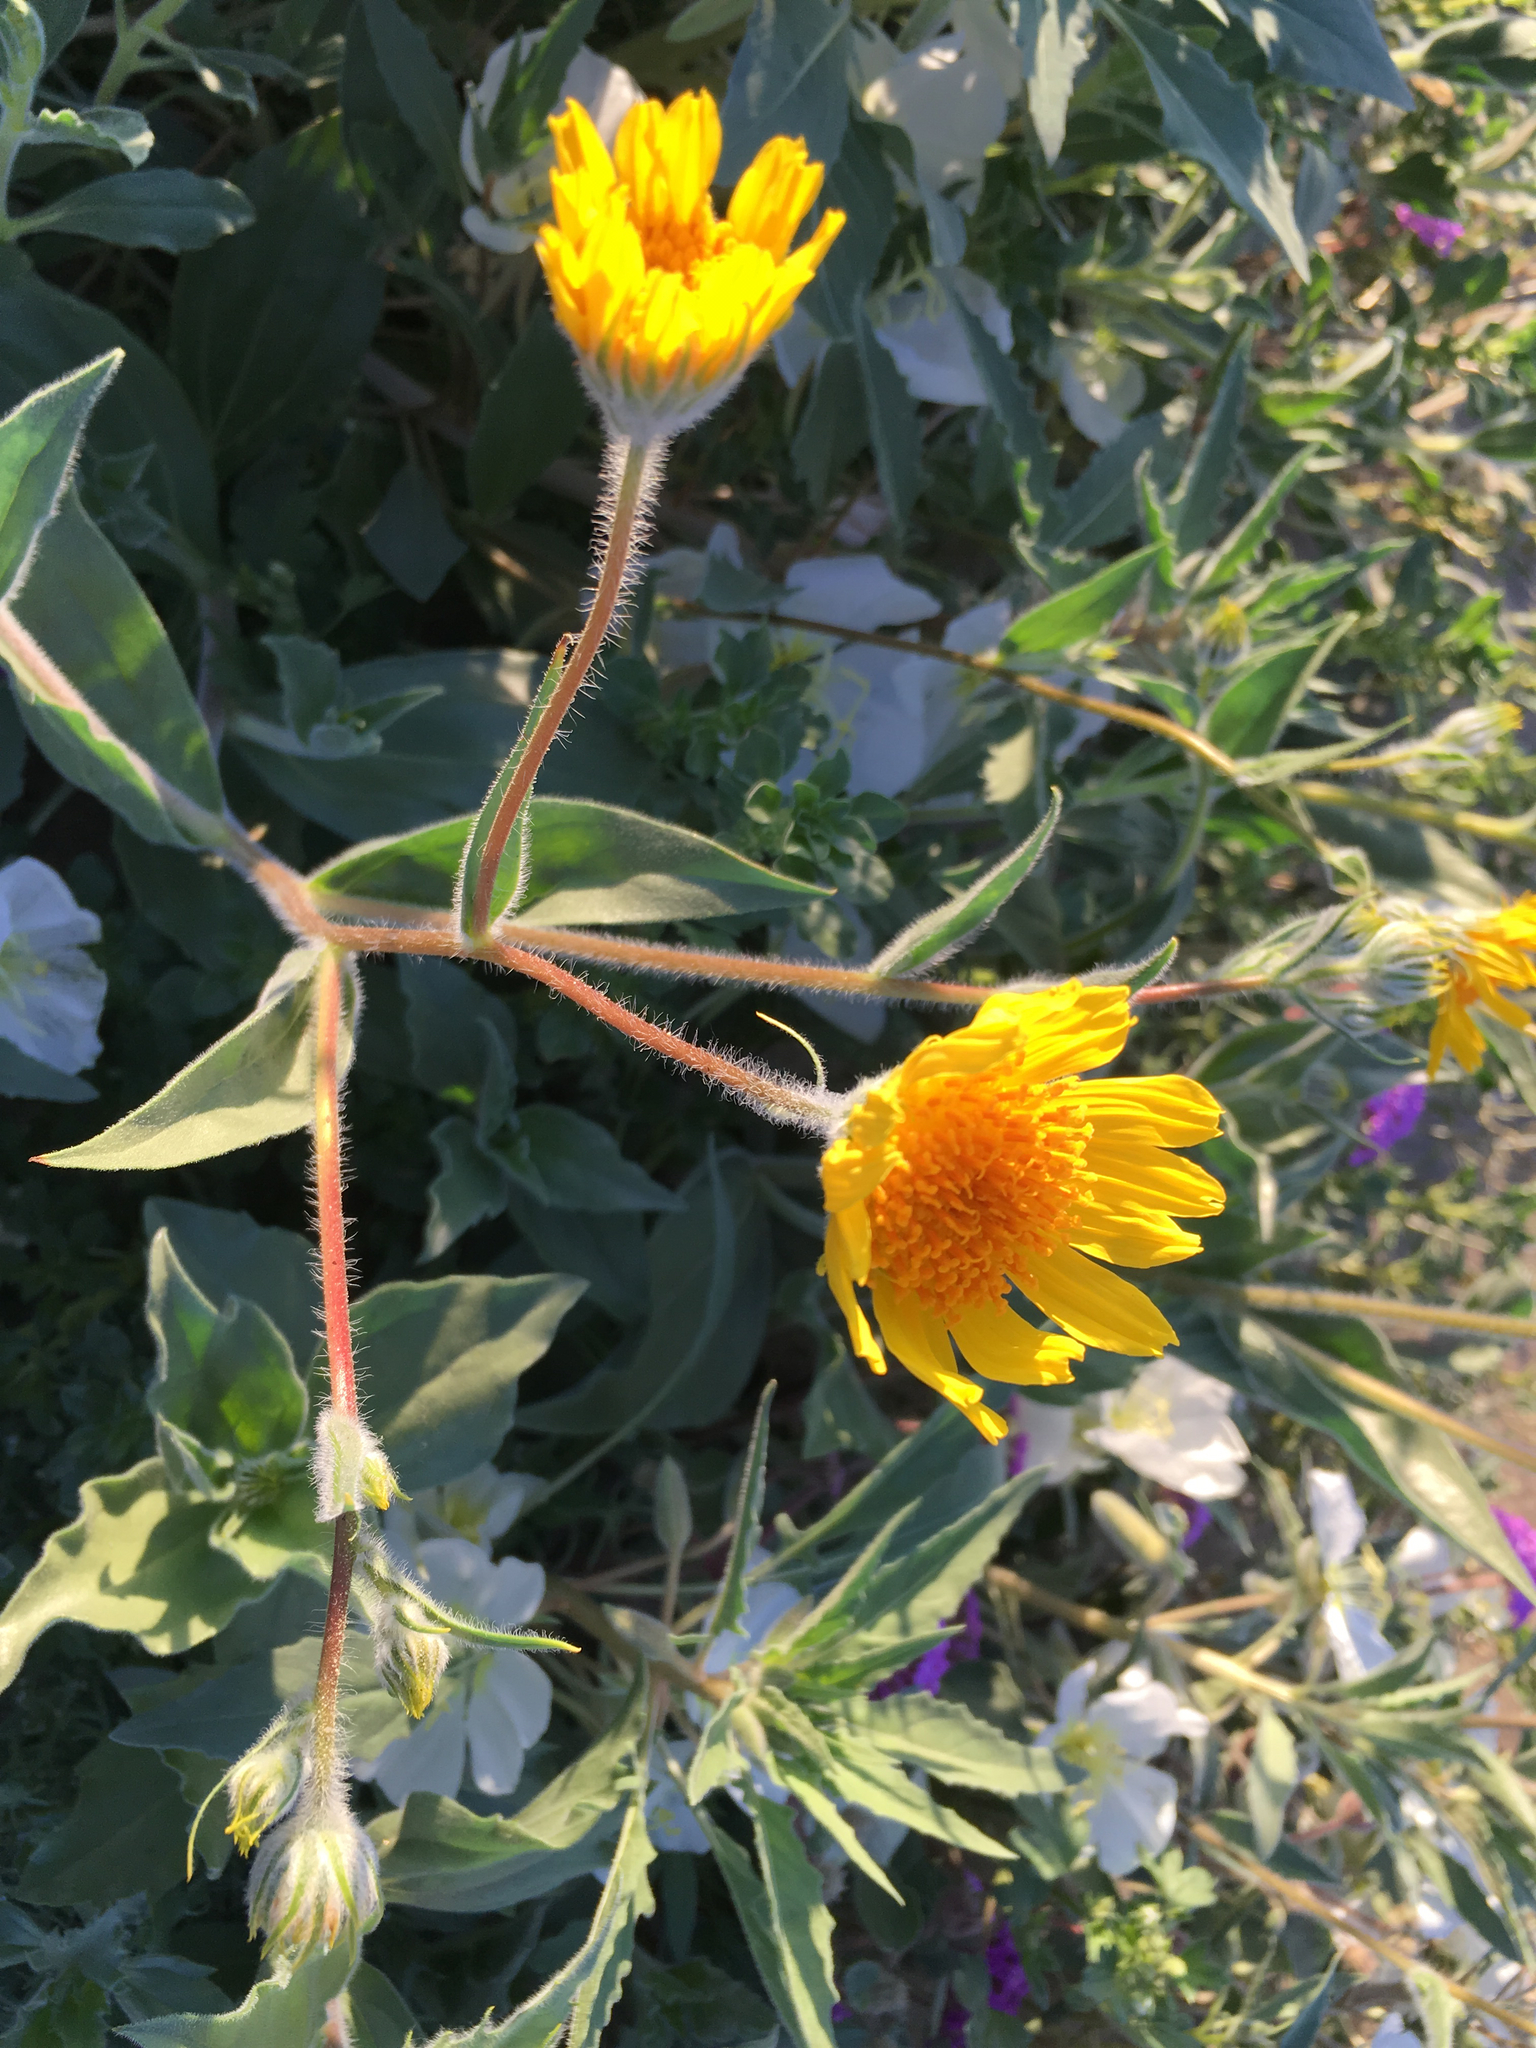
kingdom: Plantae
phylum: Tracheophyta
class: Magnoliopsida
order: Asterales
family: Asteraceae
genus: Geraea
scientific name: Geraea canescens
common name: Desert-gold
